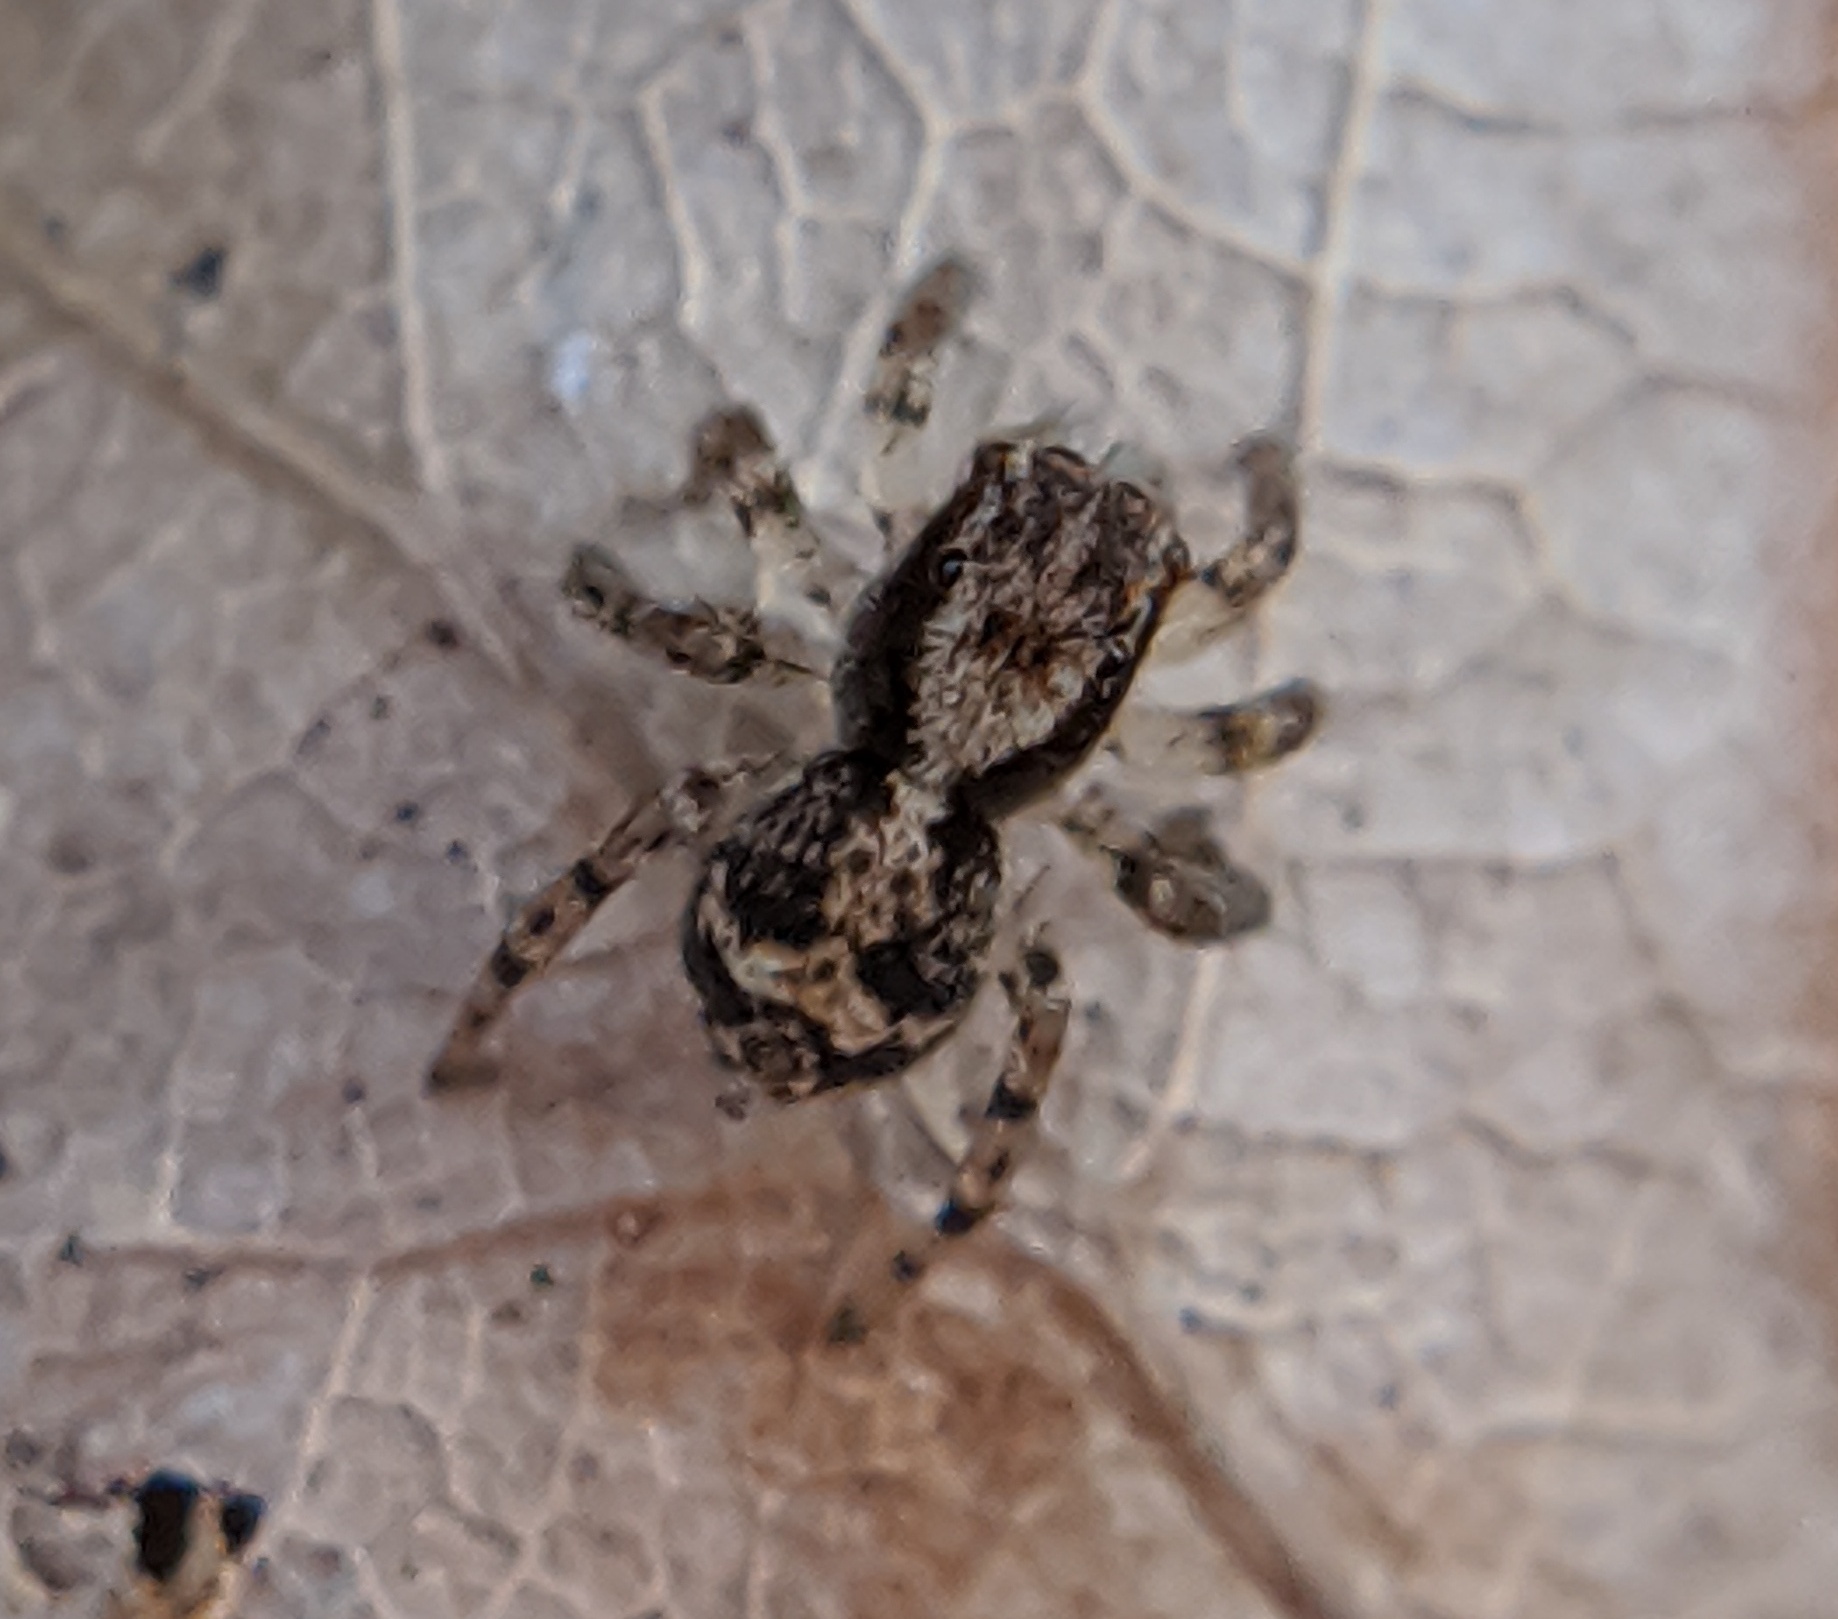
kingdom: Animalia
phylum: Arthropoda
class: Arachnida
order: Araneae
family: Salticidae
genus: Naphrys
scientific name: Naphrys pulex
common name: Flea jumping spider
